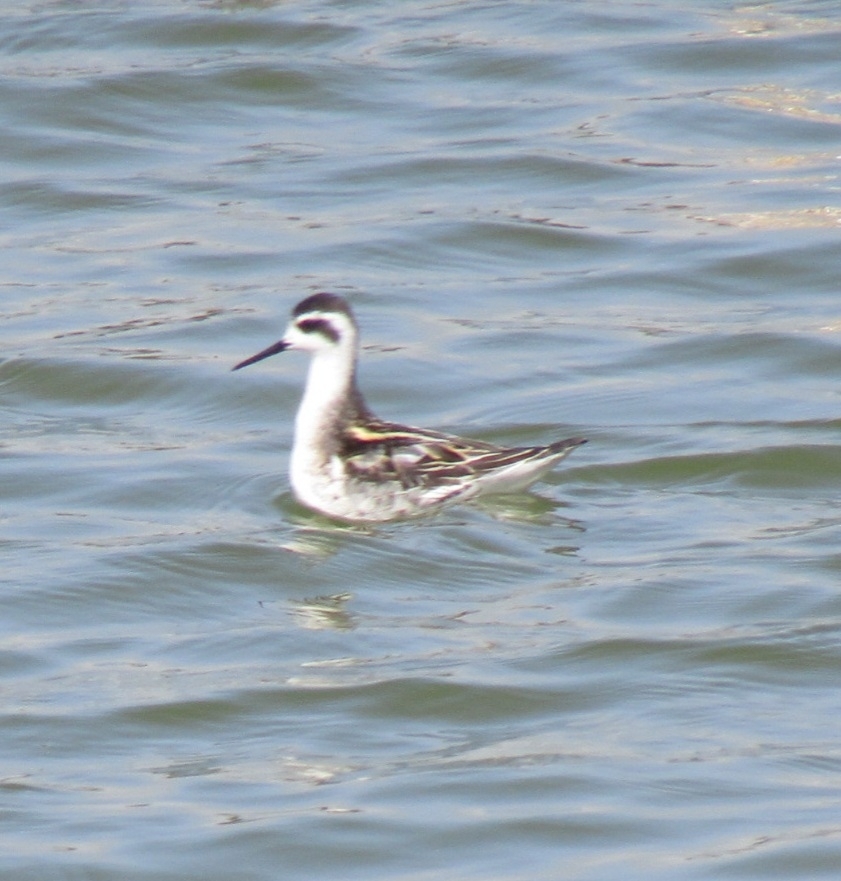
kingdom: Animalia
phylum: Chordata
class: Aves
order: Charadriiformes
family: Scolopacidae
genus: Phalaropus
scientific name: Phalaropus lobatus
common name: Red-necked phalarope
